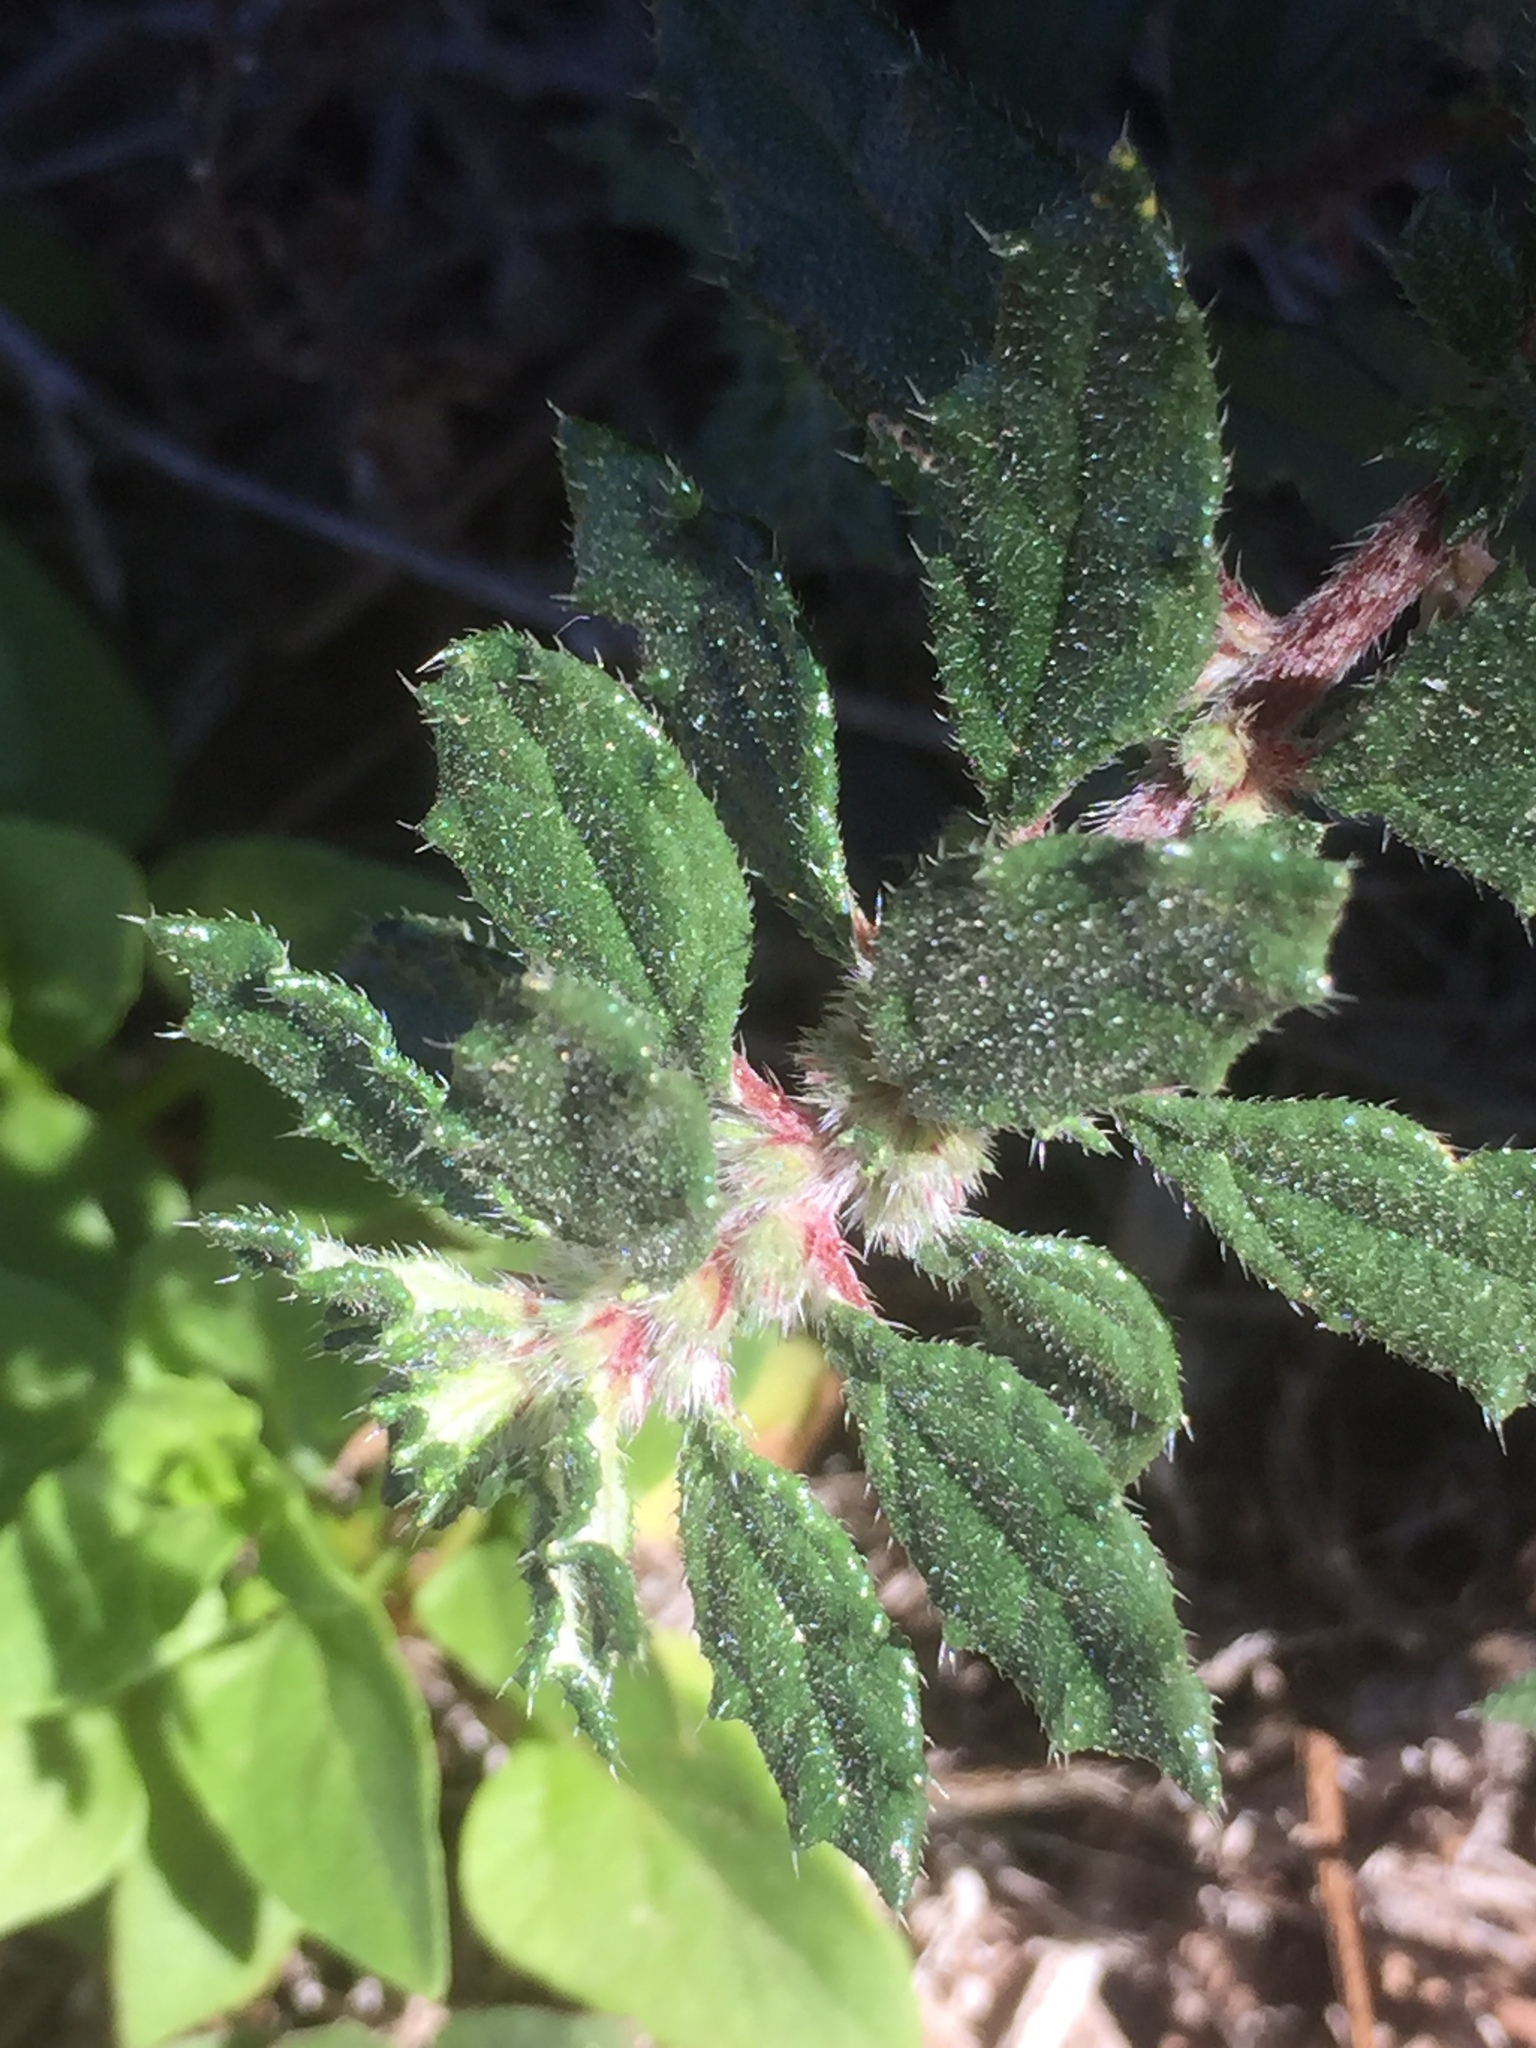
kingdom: Plantae
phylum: Tracheophyta
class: Magnoliopsida
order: Rosales
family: Urticaceae
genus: Forsskaolea
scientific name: Forsskaolea angustifolia
